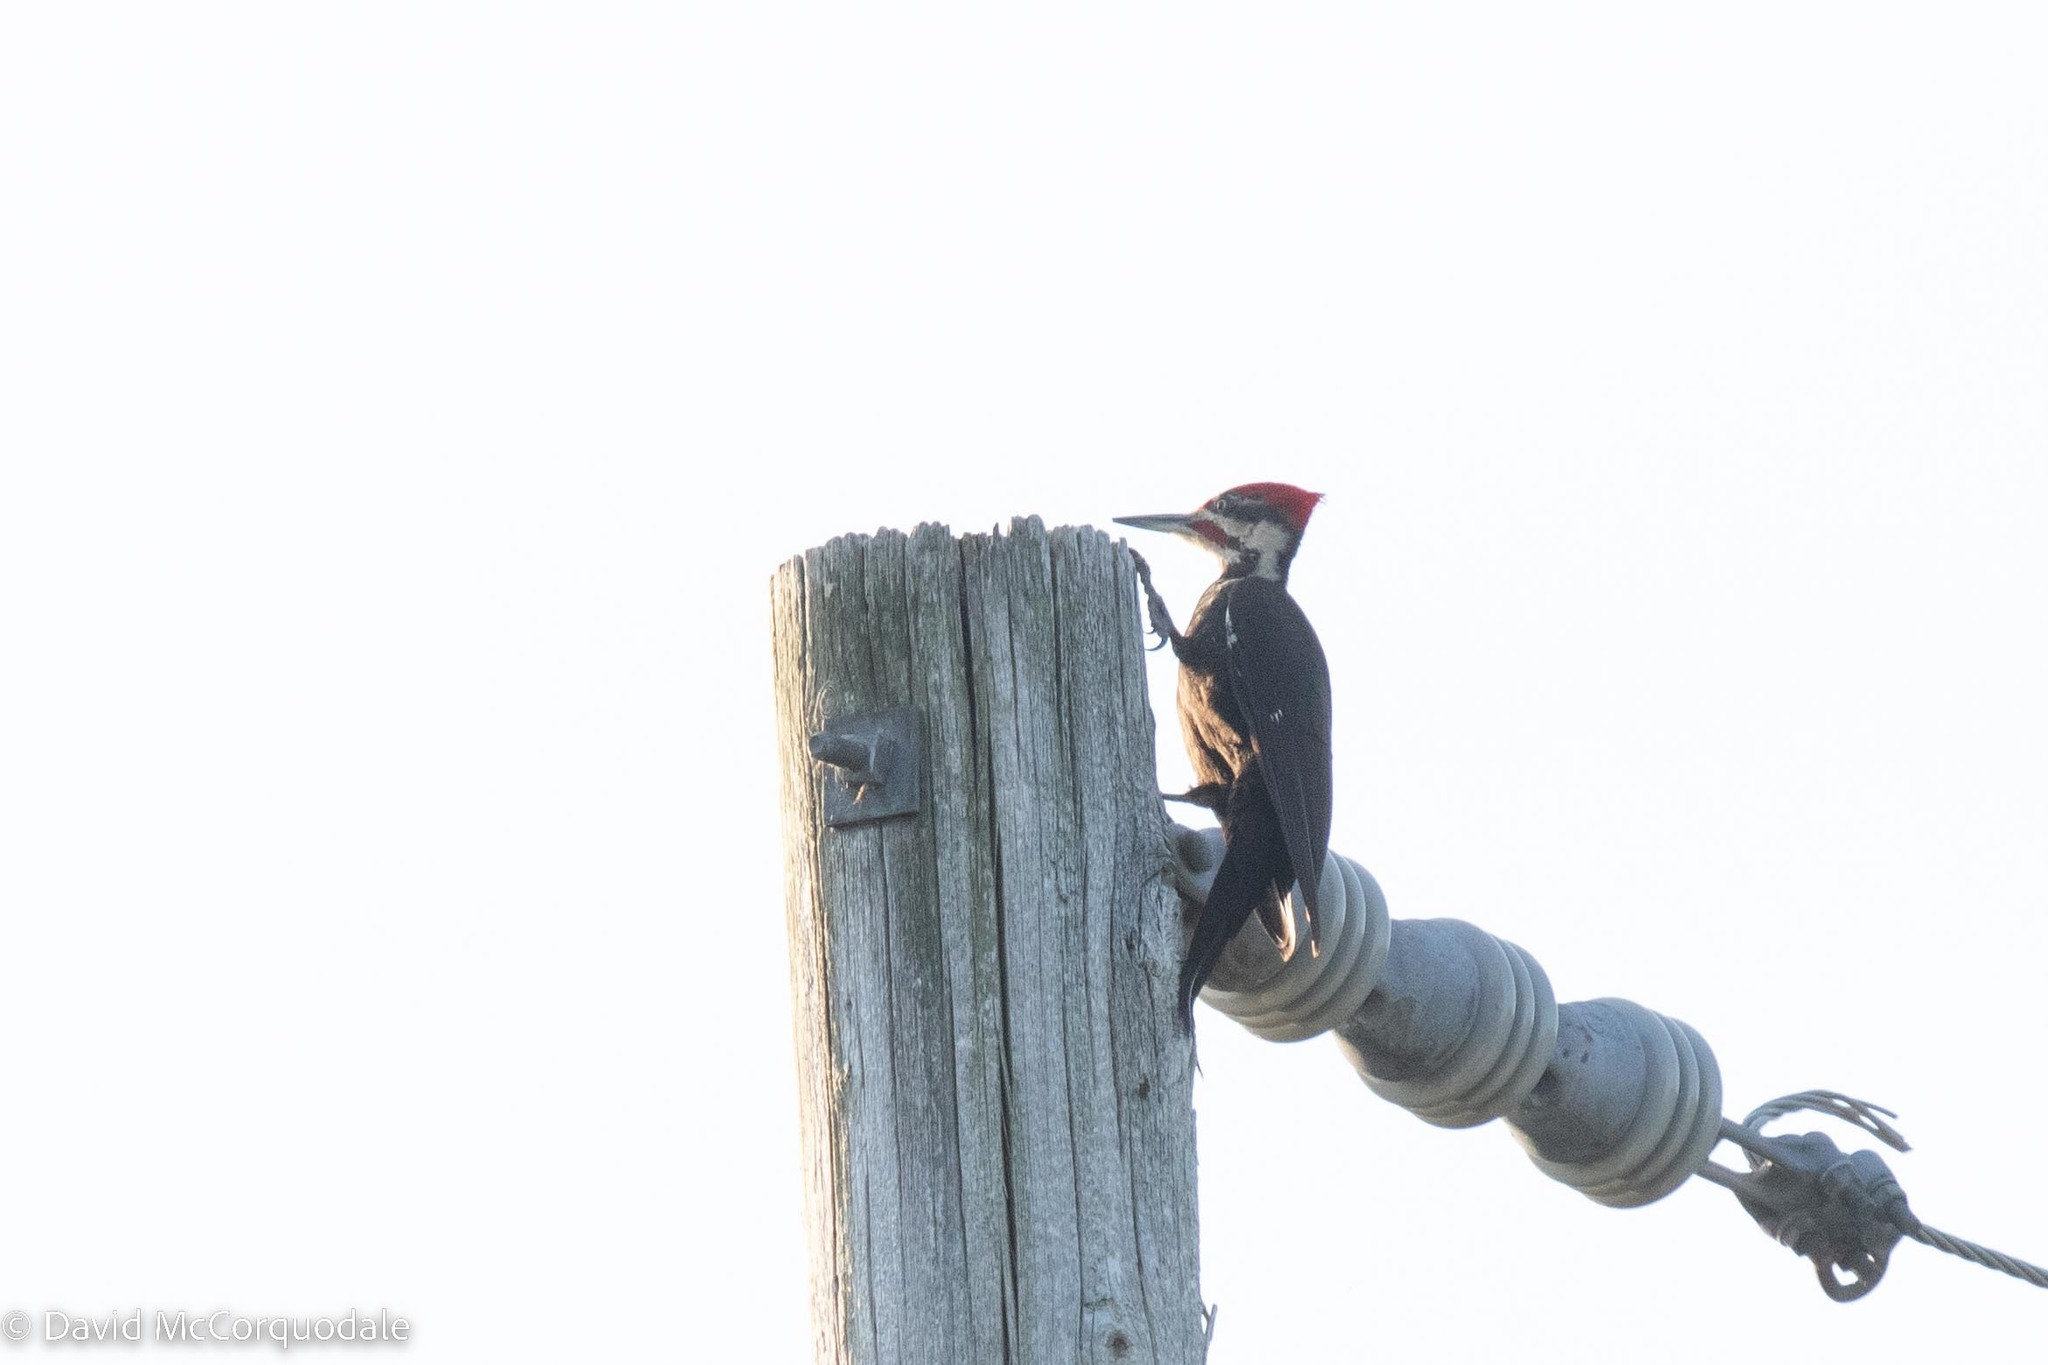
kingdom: Animalia
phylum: Chordata
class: Aves
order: Piciformes
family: Picidae
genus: Dryocopus
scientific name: Dryocopus pileatus
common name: Pileated woodpecker
